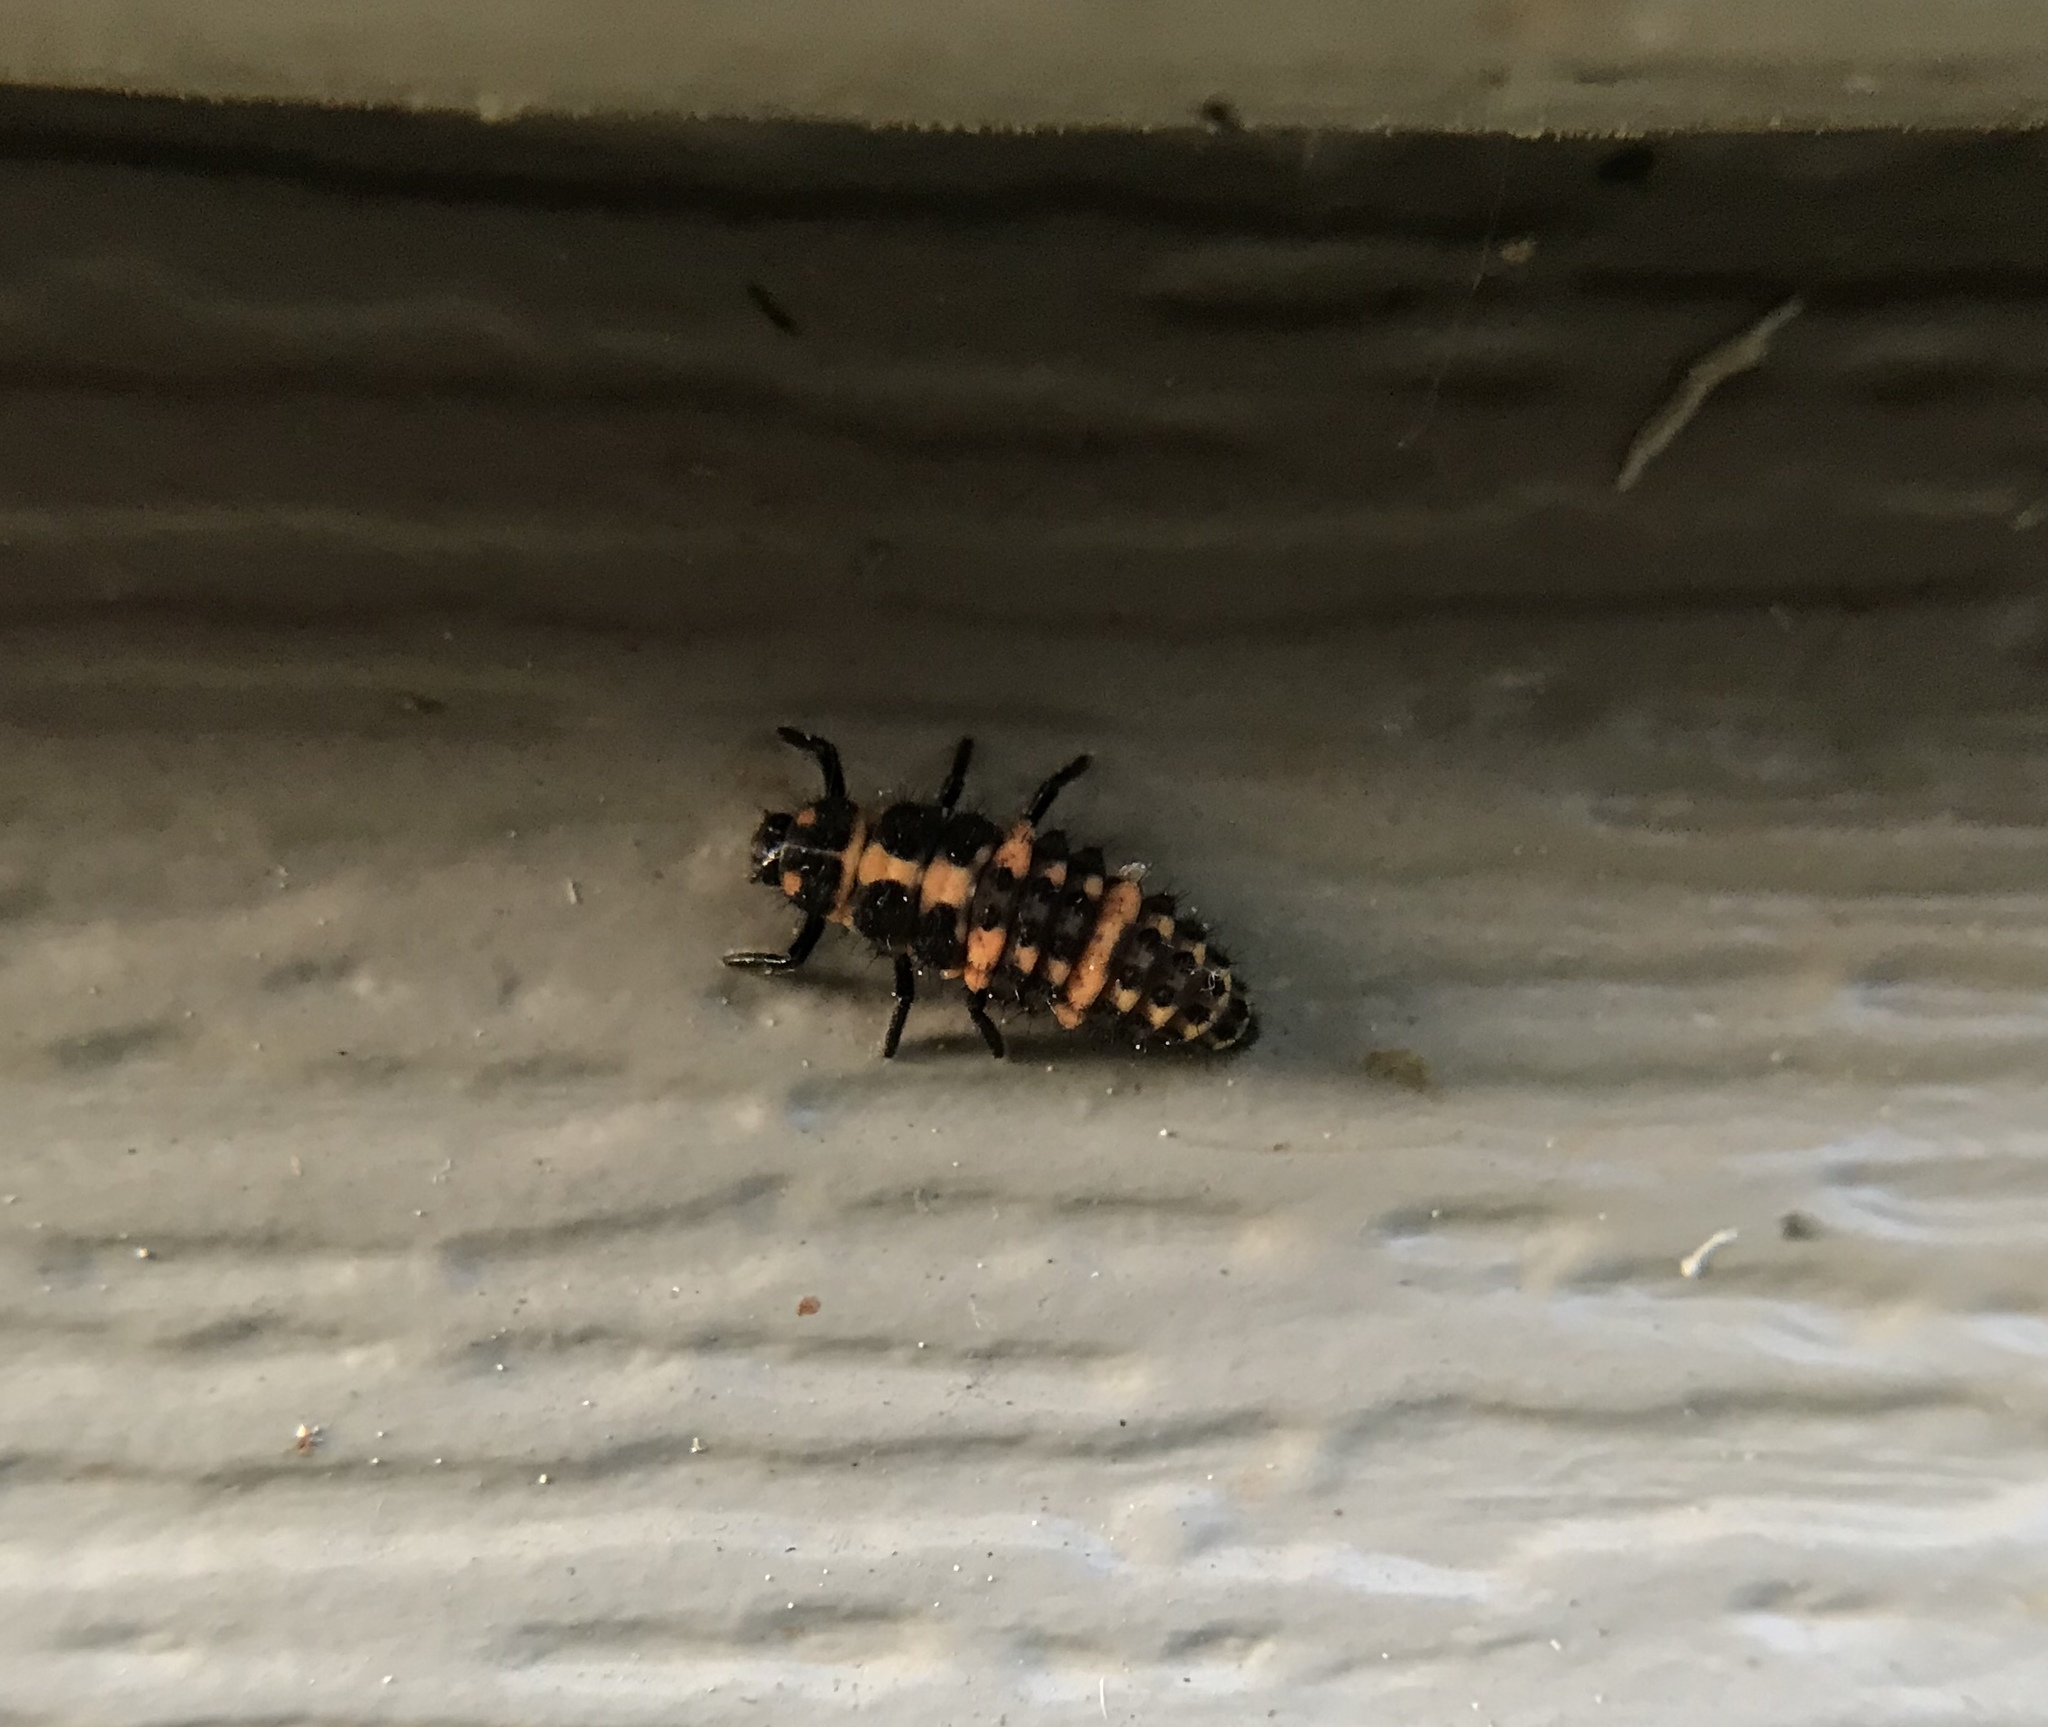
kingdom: Animalia
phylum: Arthropoda
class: Insecta
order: Coleoptera
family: Coccinellidae
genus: Coleomegilla
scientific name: Coleomegilla maculata
